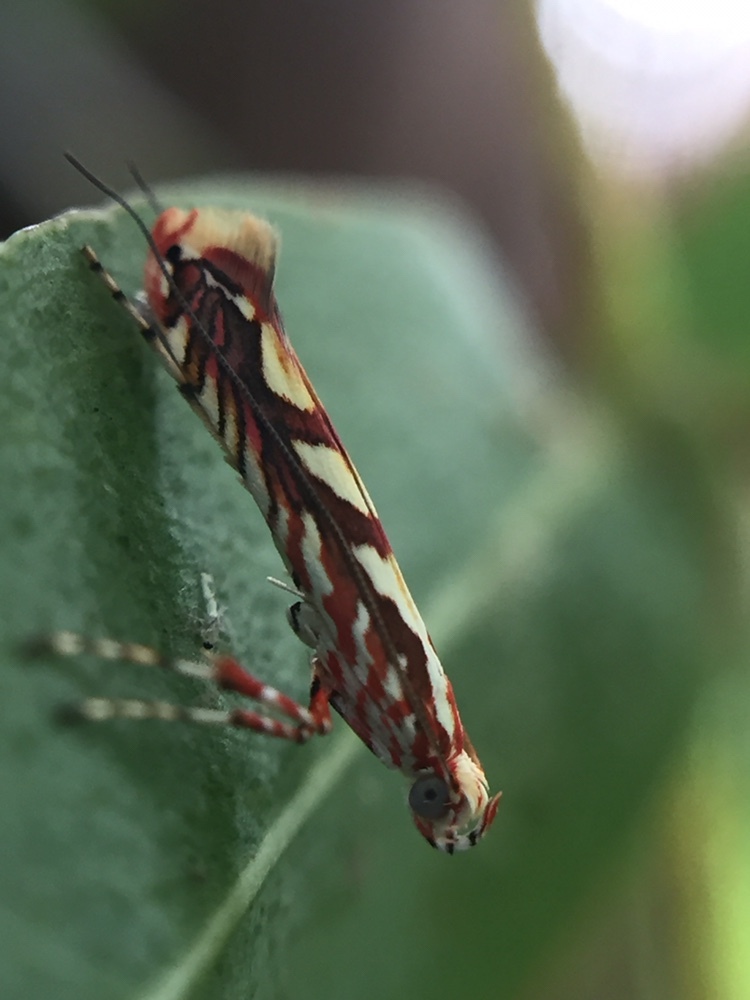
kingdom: Animalia
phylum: Arthropoda
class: Insecta
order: Lepidoptera
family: Gracillariidae
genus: Macarostola
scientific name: Macarostola ida
